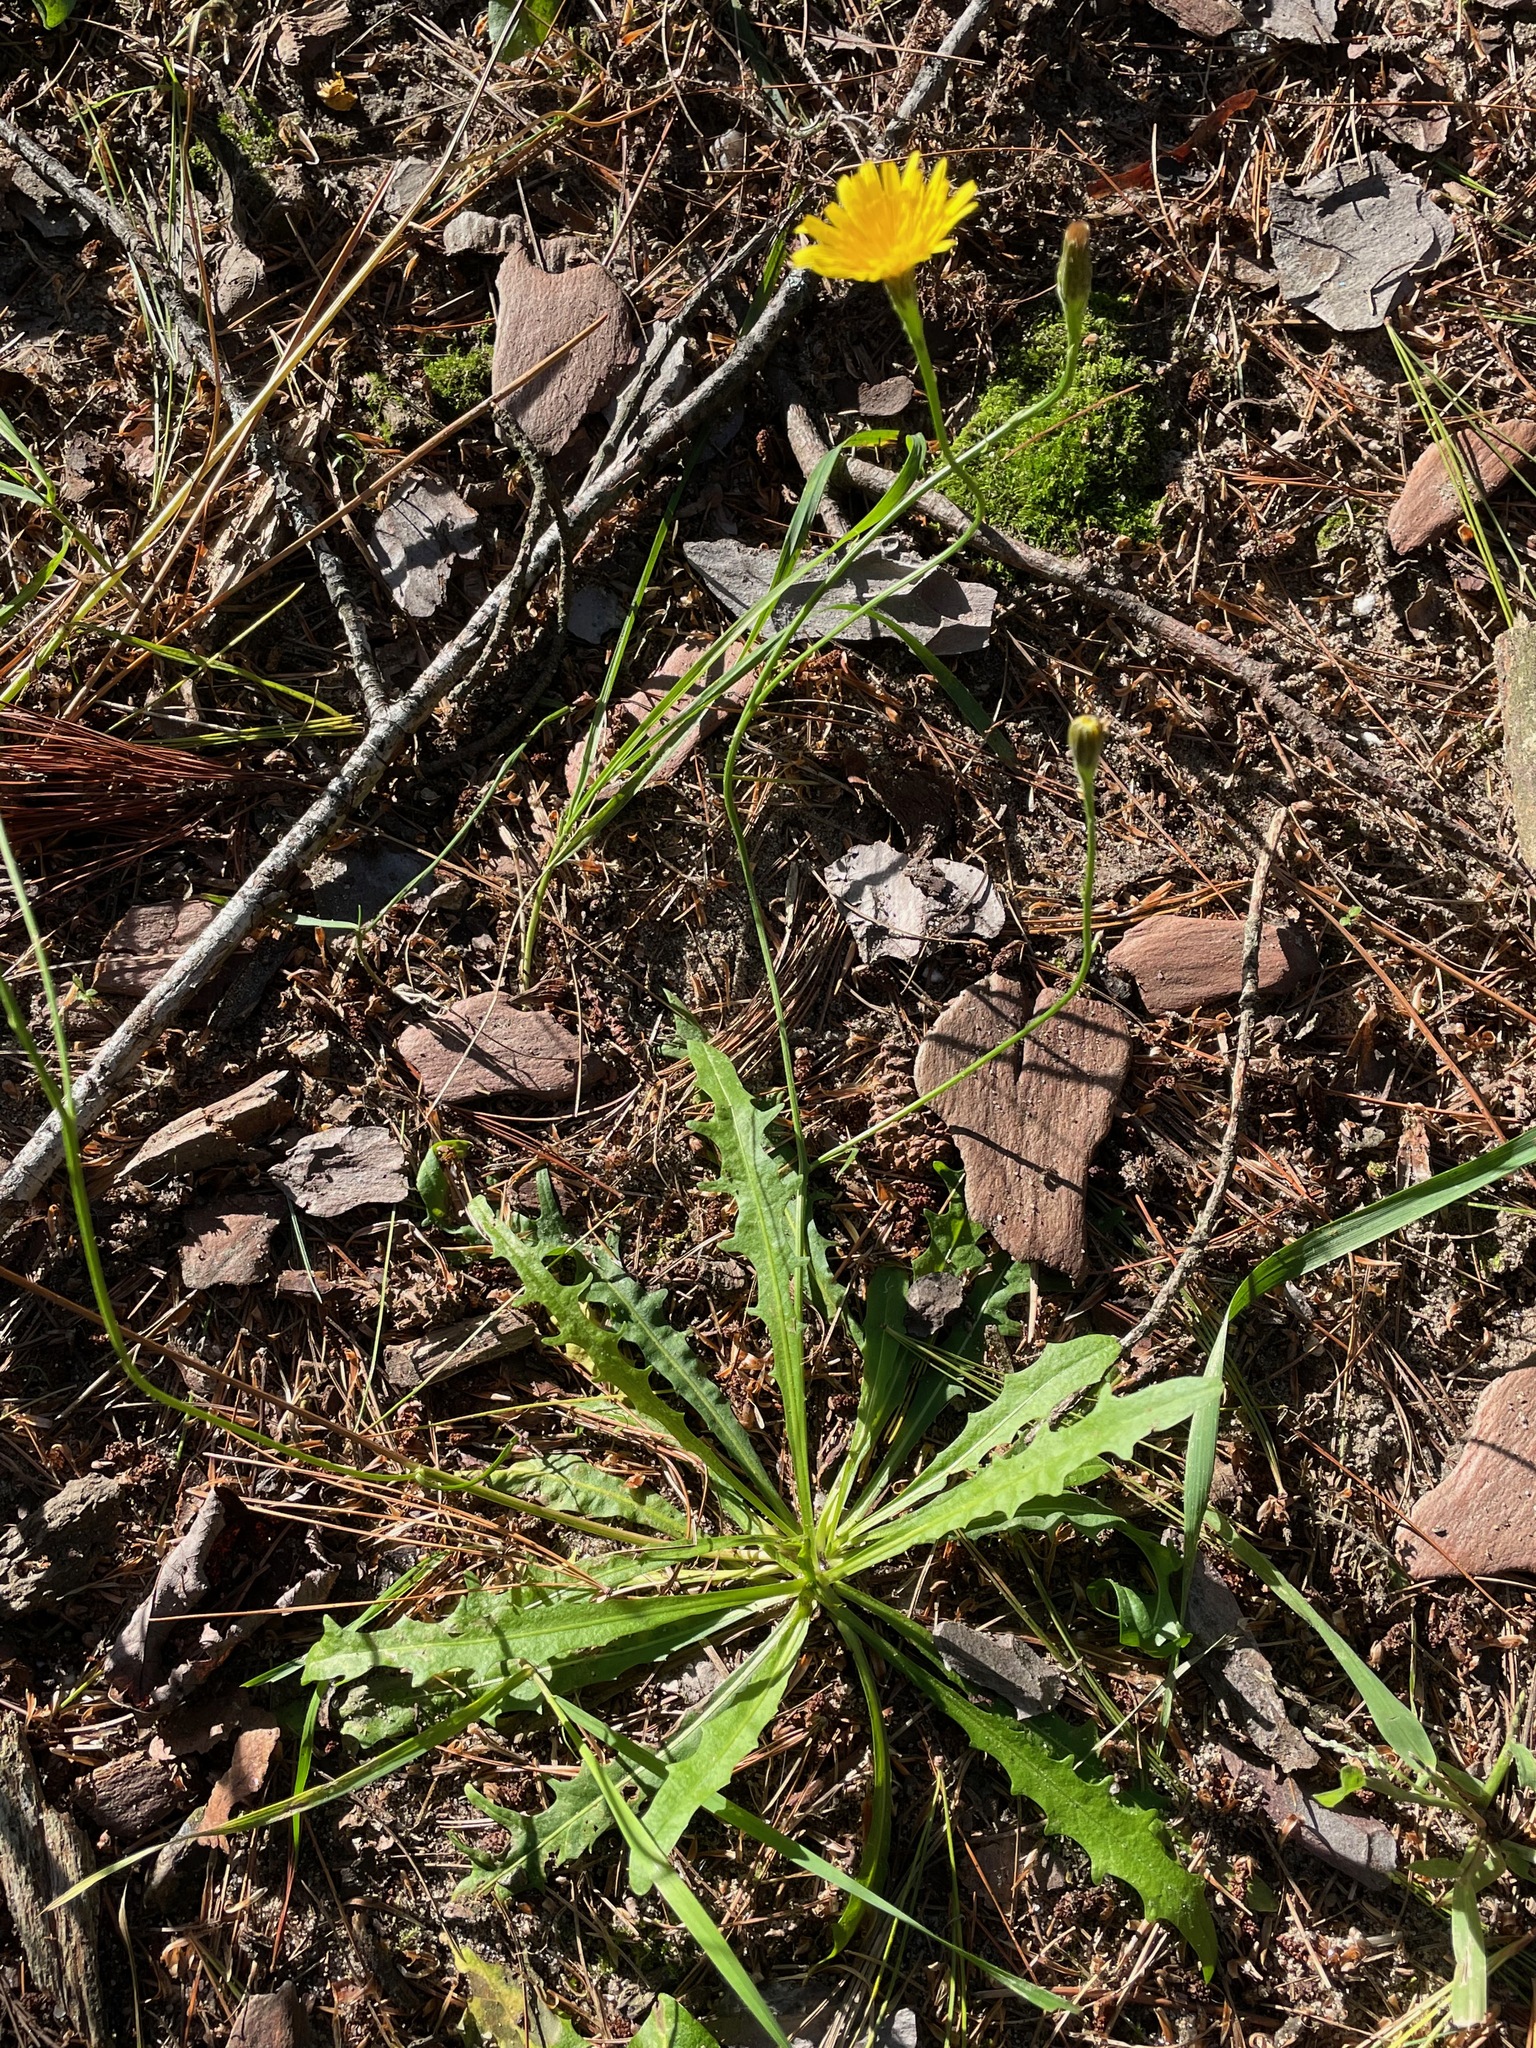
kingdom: Plantae
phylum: Tracheophyta
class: Magnoliopsida
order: Asterales
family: Asteraceae
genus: Scorzoneroides
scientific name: Scorzoneroides autumnalis
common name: Autumn hawkbit
